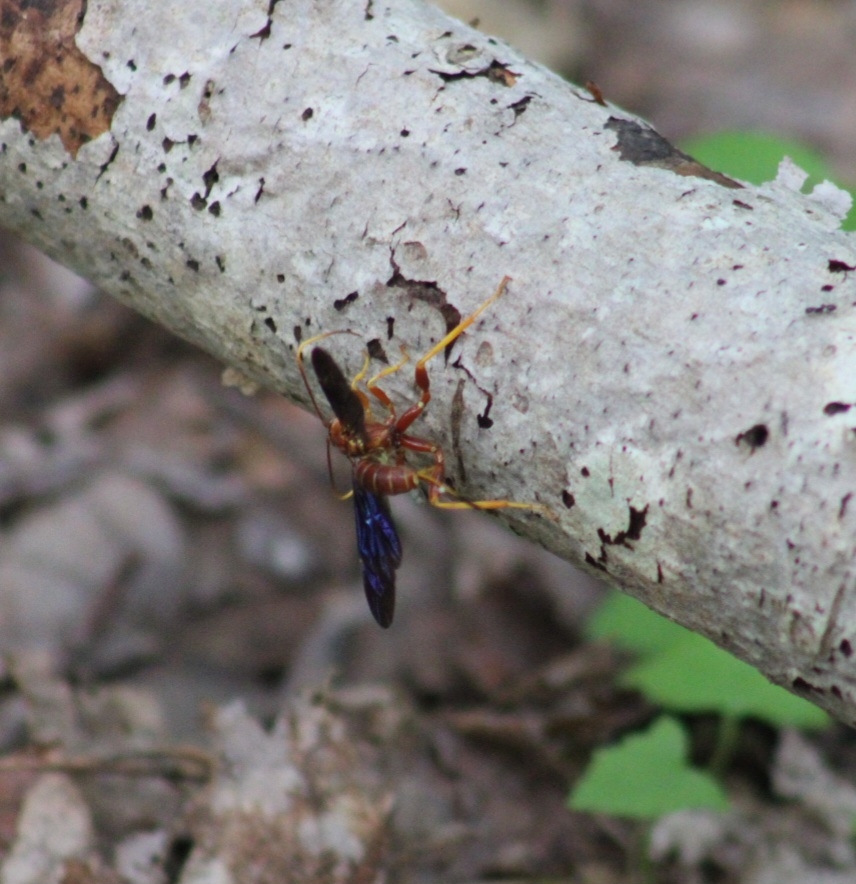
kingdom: Animalia
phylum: Arthropoda
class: Insecta
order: Hymenoptera
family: Ichneumonidae
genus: Labena
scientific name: Labena grallator
